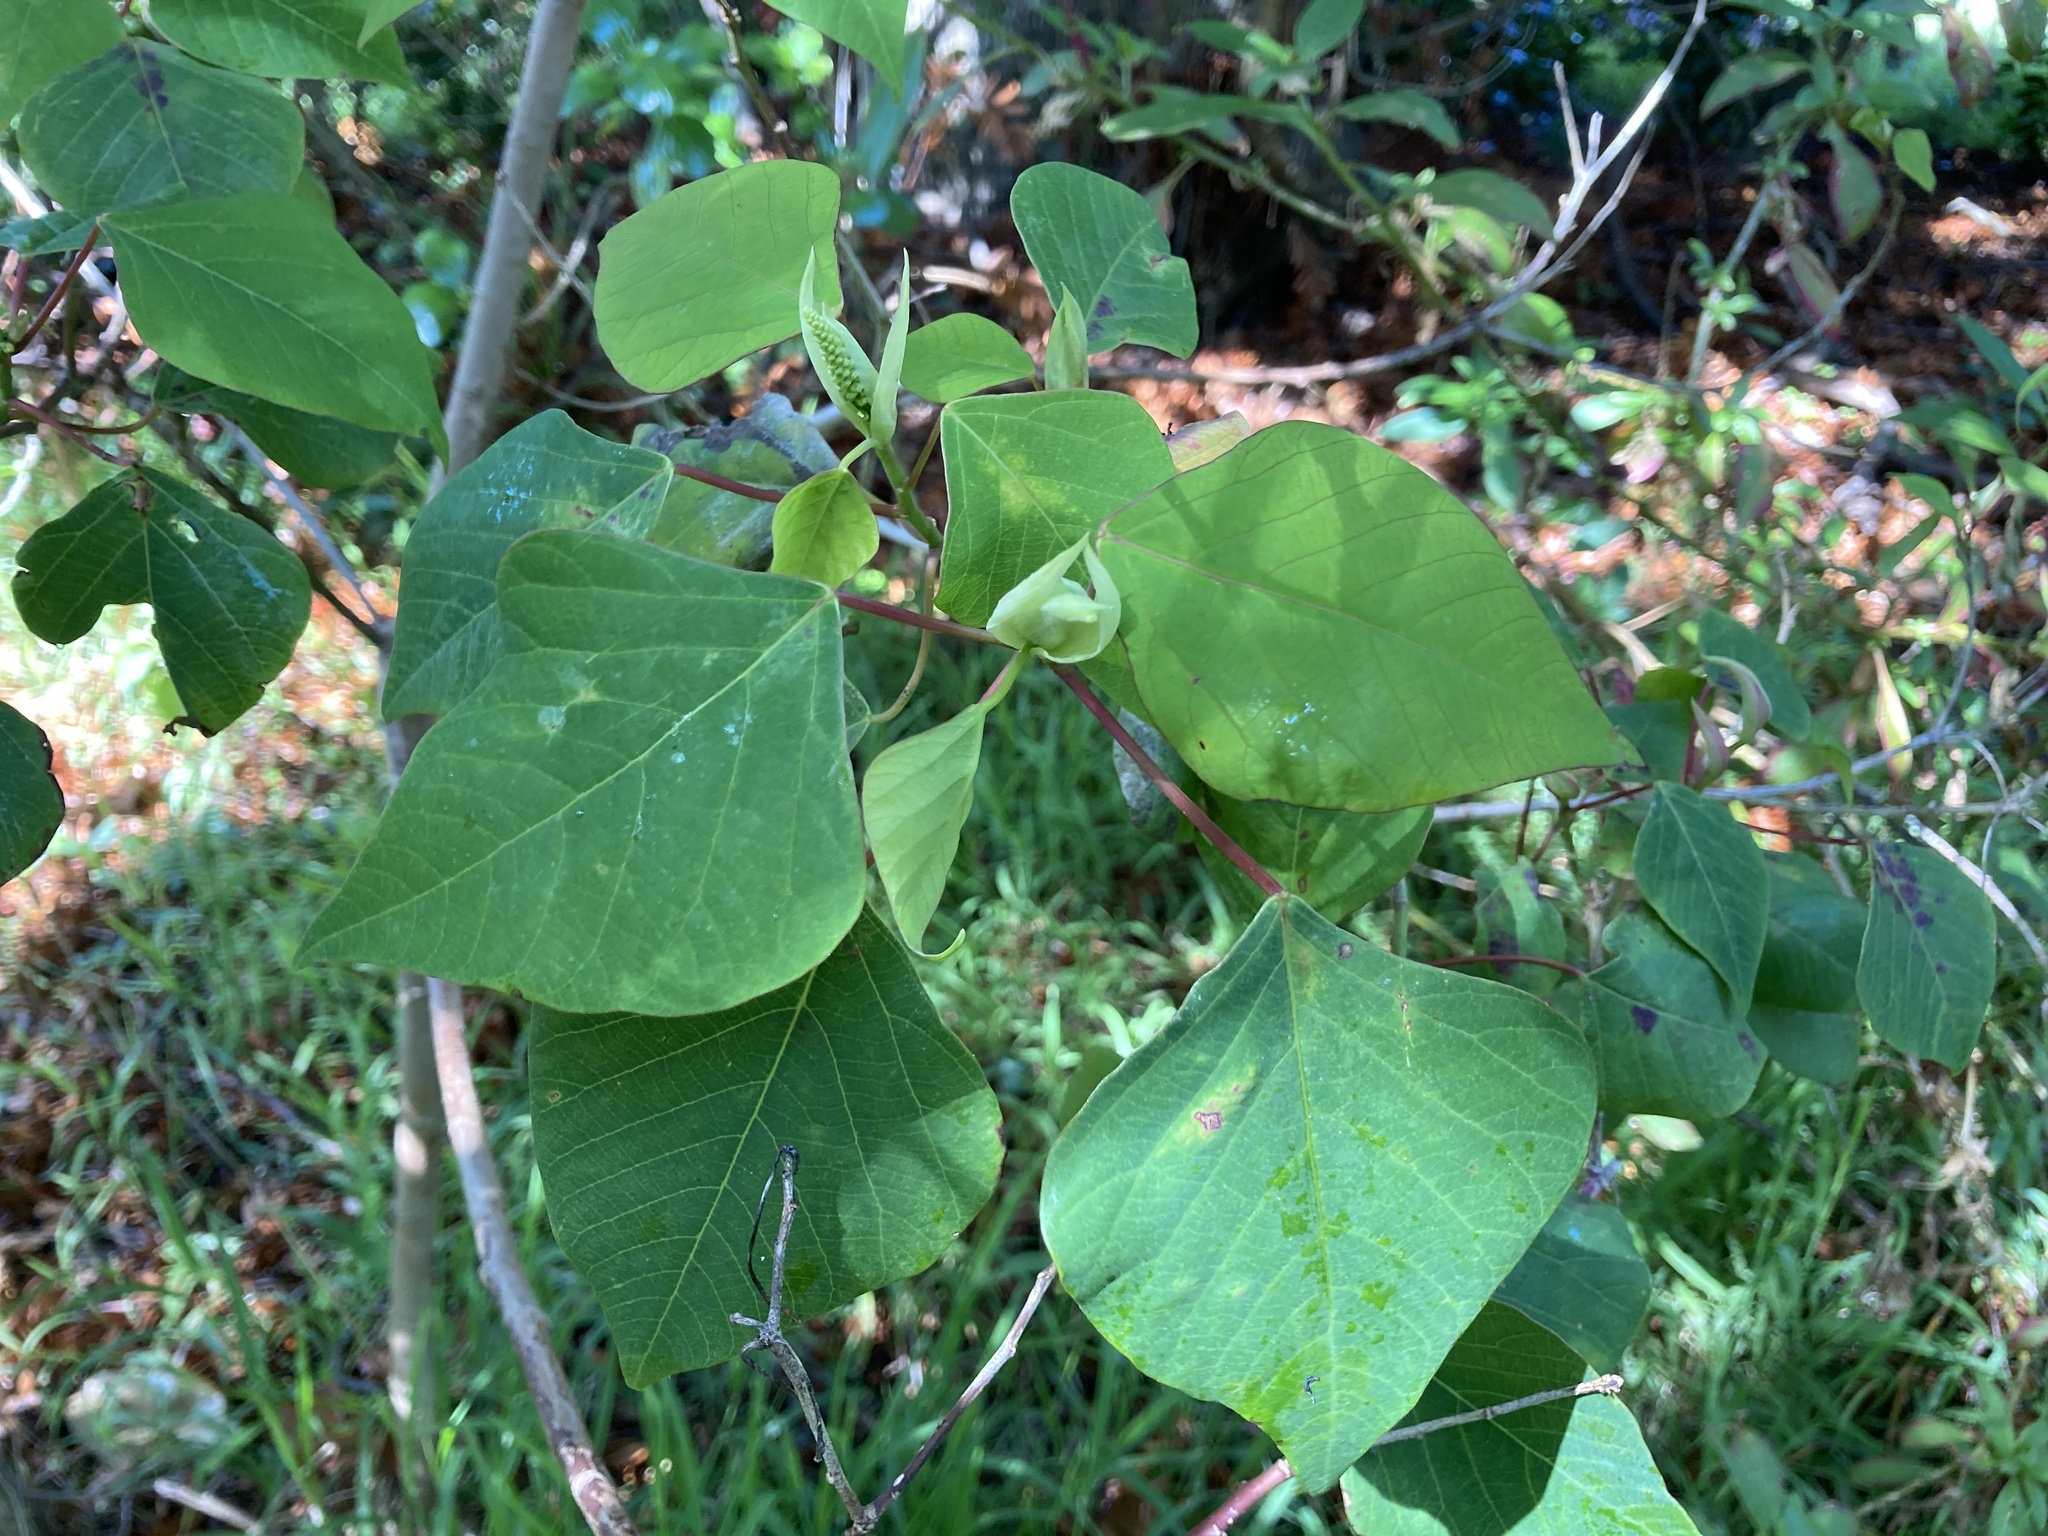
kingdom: Plantae
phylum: Tracheophyta
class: Magnoliopsida
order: Malpighiales
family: Euphorbiaceae
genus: Homalanthus
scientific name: Homalanthus populifolius
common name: Queensland poplar
